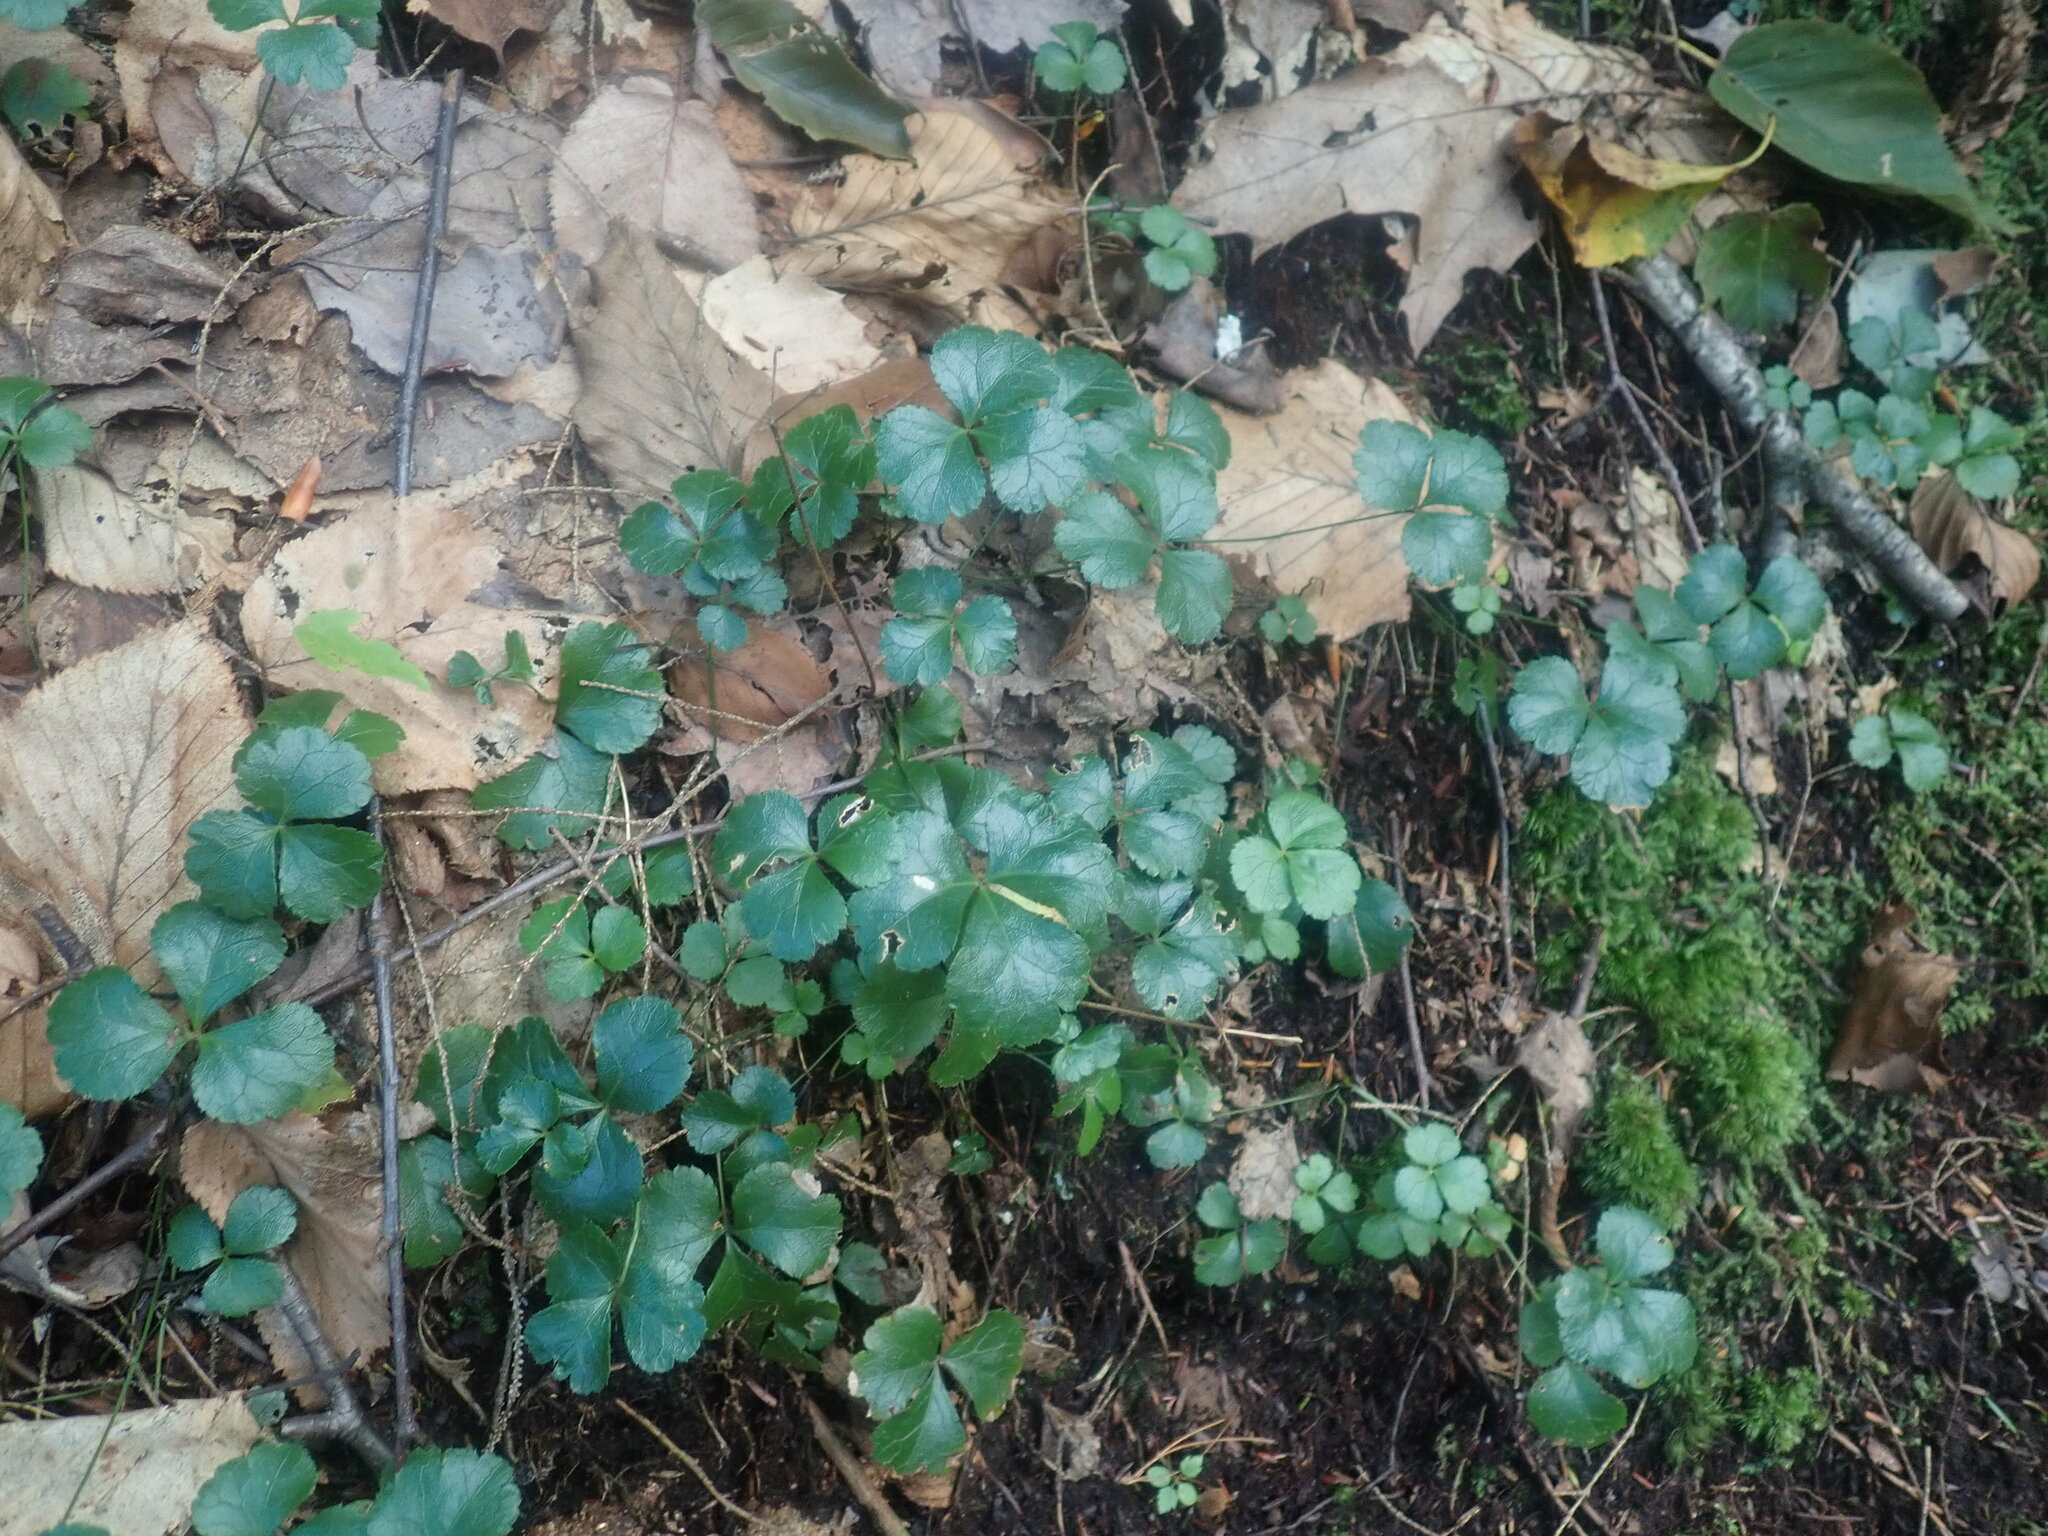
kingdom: Plantae
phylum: Tracheophyta
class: Magnoliopsida
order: Ranunculales
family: Ranunculaceae
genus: Coptis
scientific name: Coptis trifolia
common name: Canker-root
